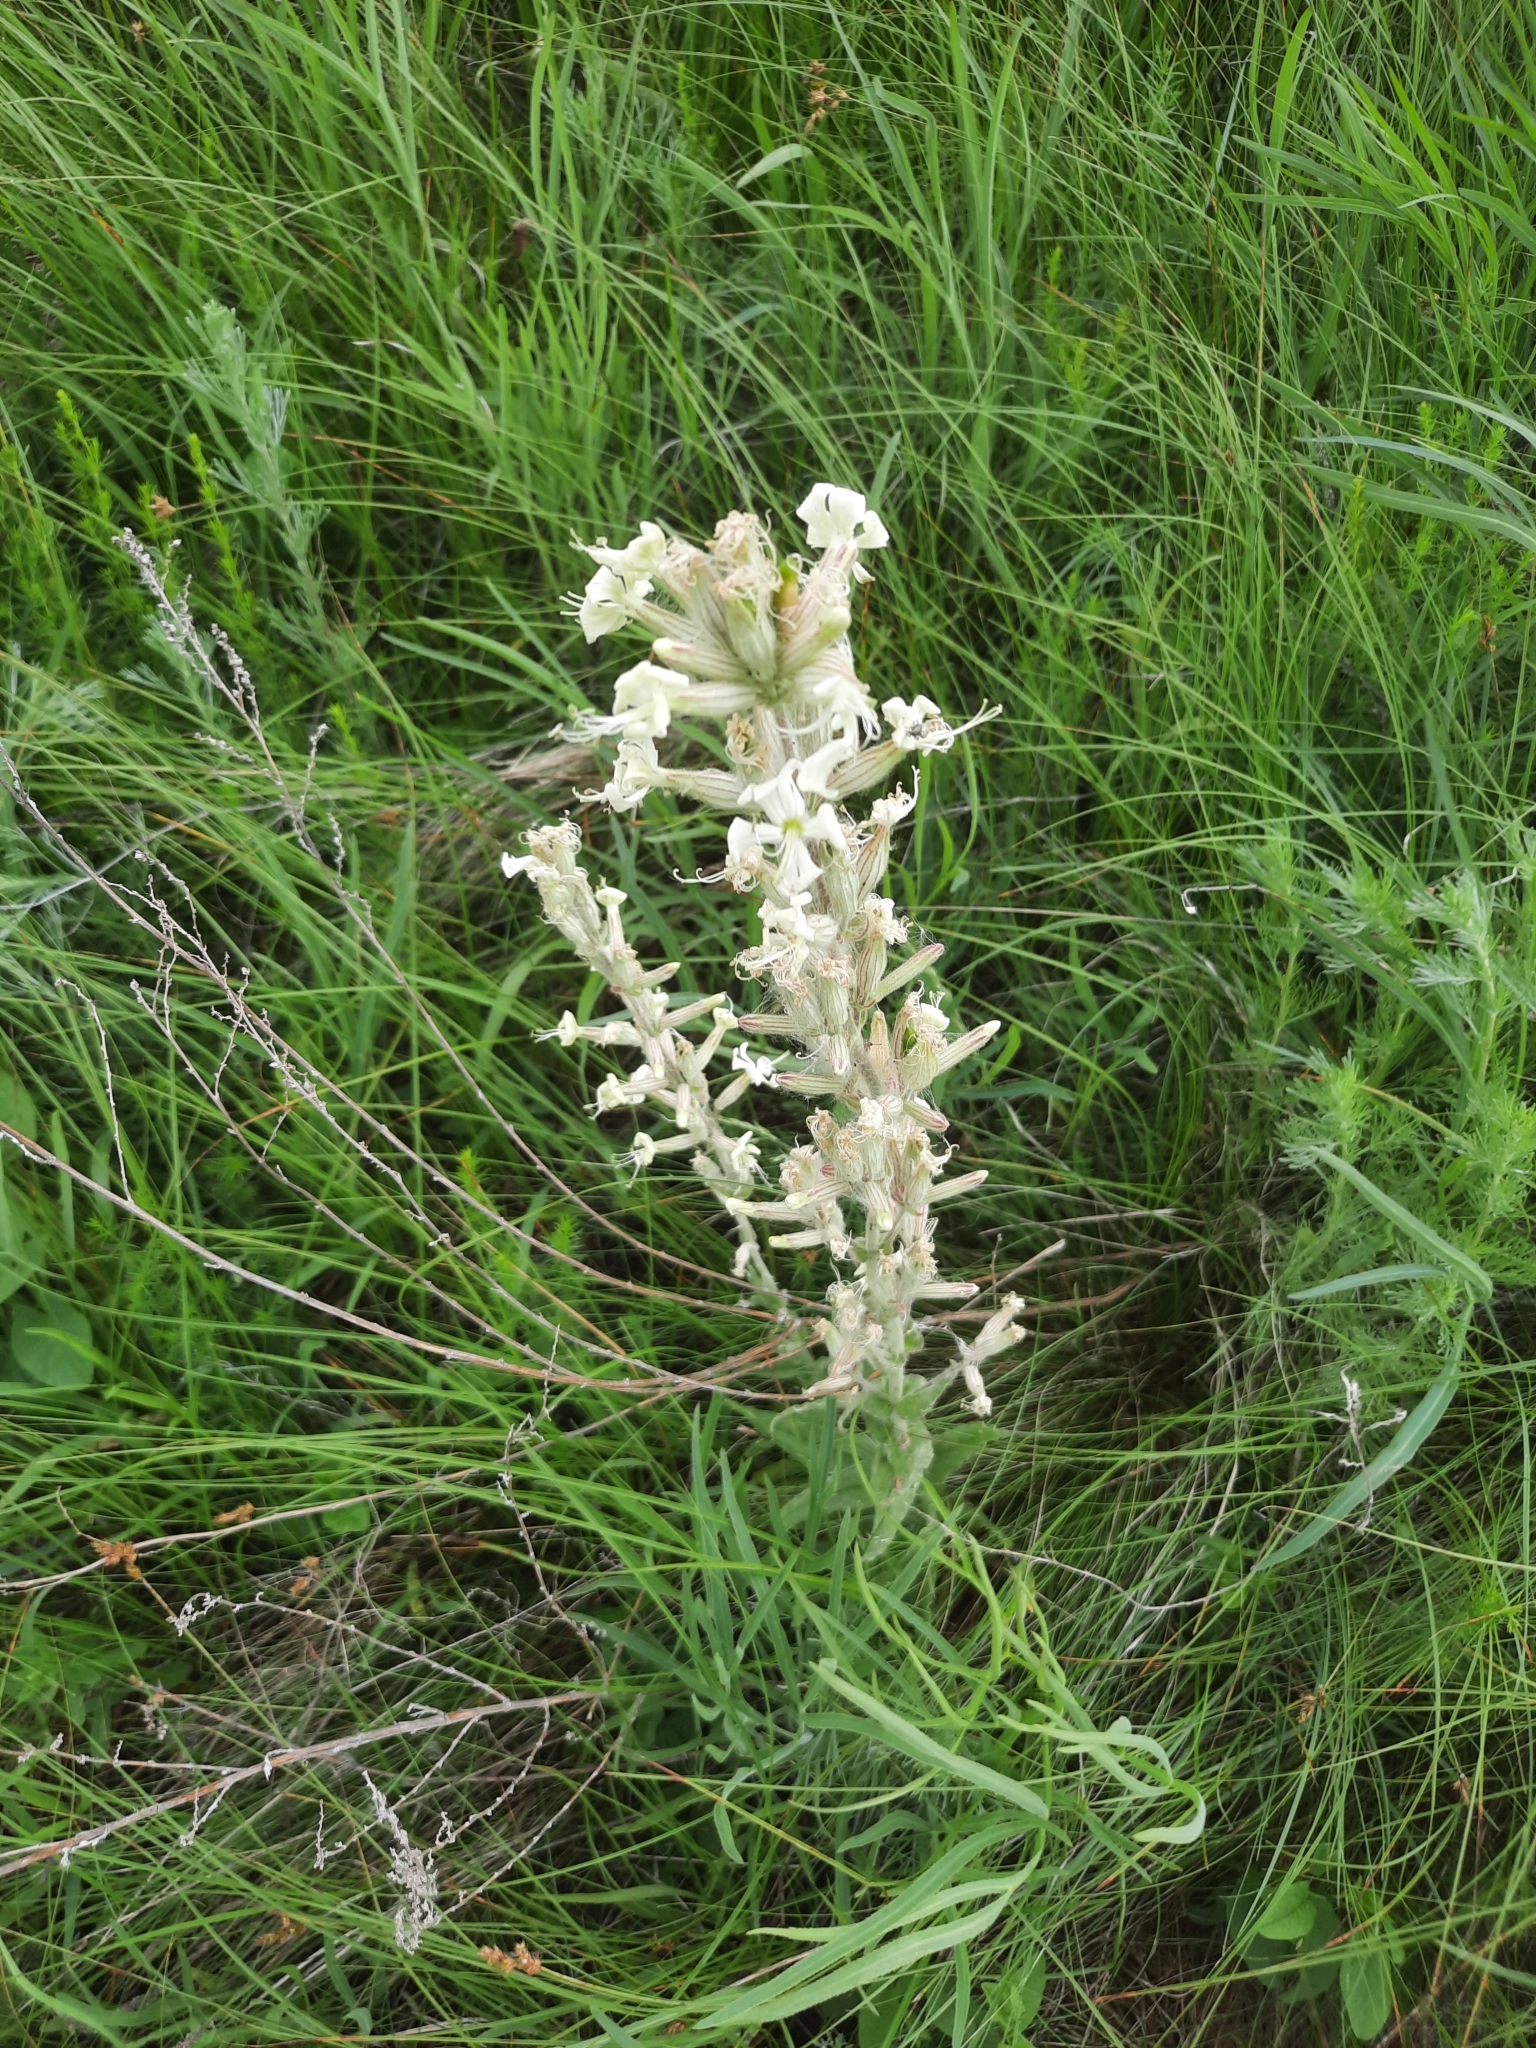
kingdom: Plantae
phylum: Tracheophyta
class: Magnoliopsida
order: Caryophyllales
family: Caryophyllaceae
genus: Silene
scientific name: Silene viscosa
